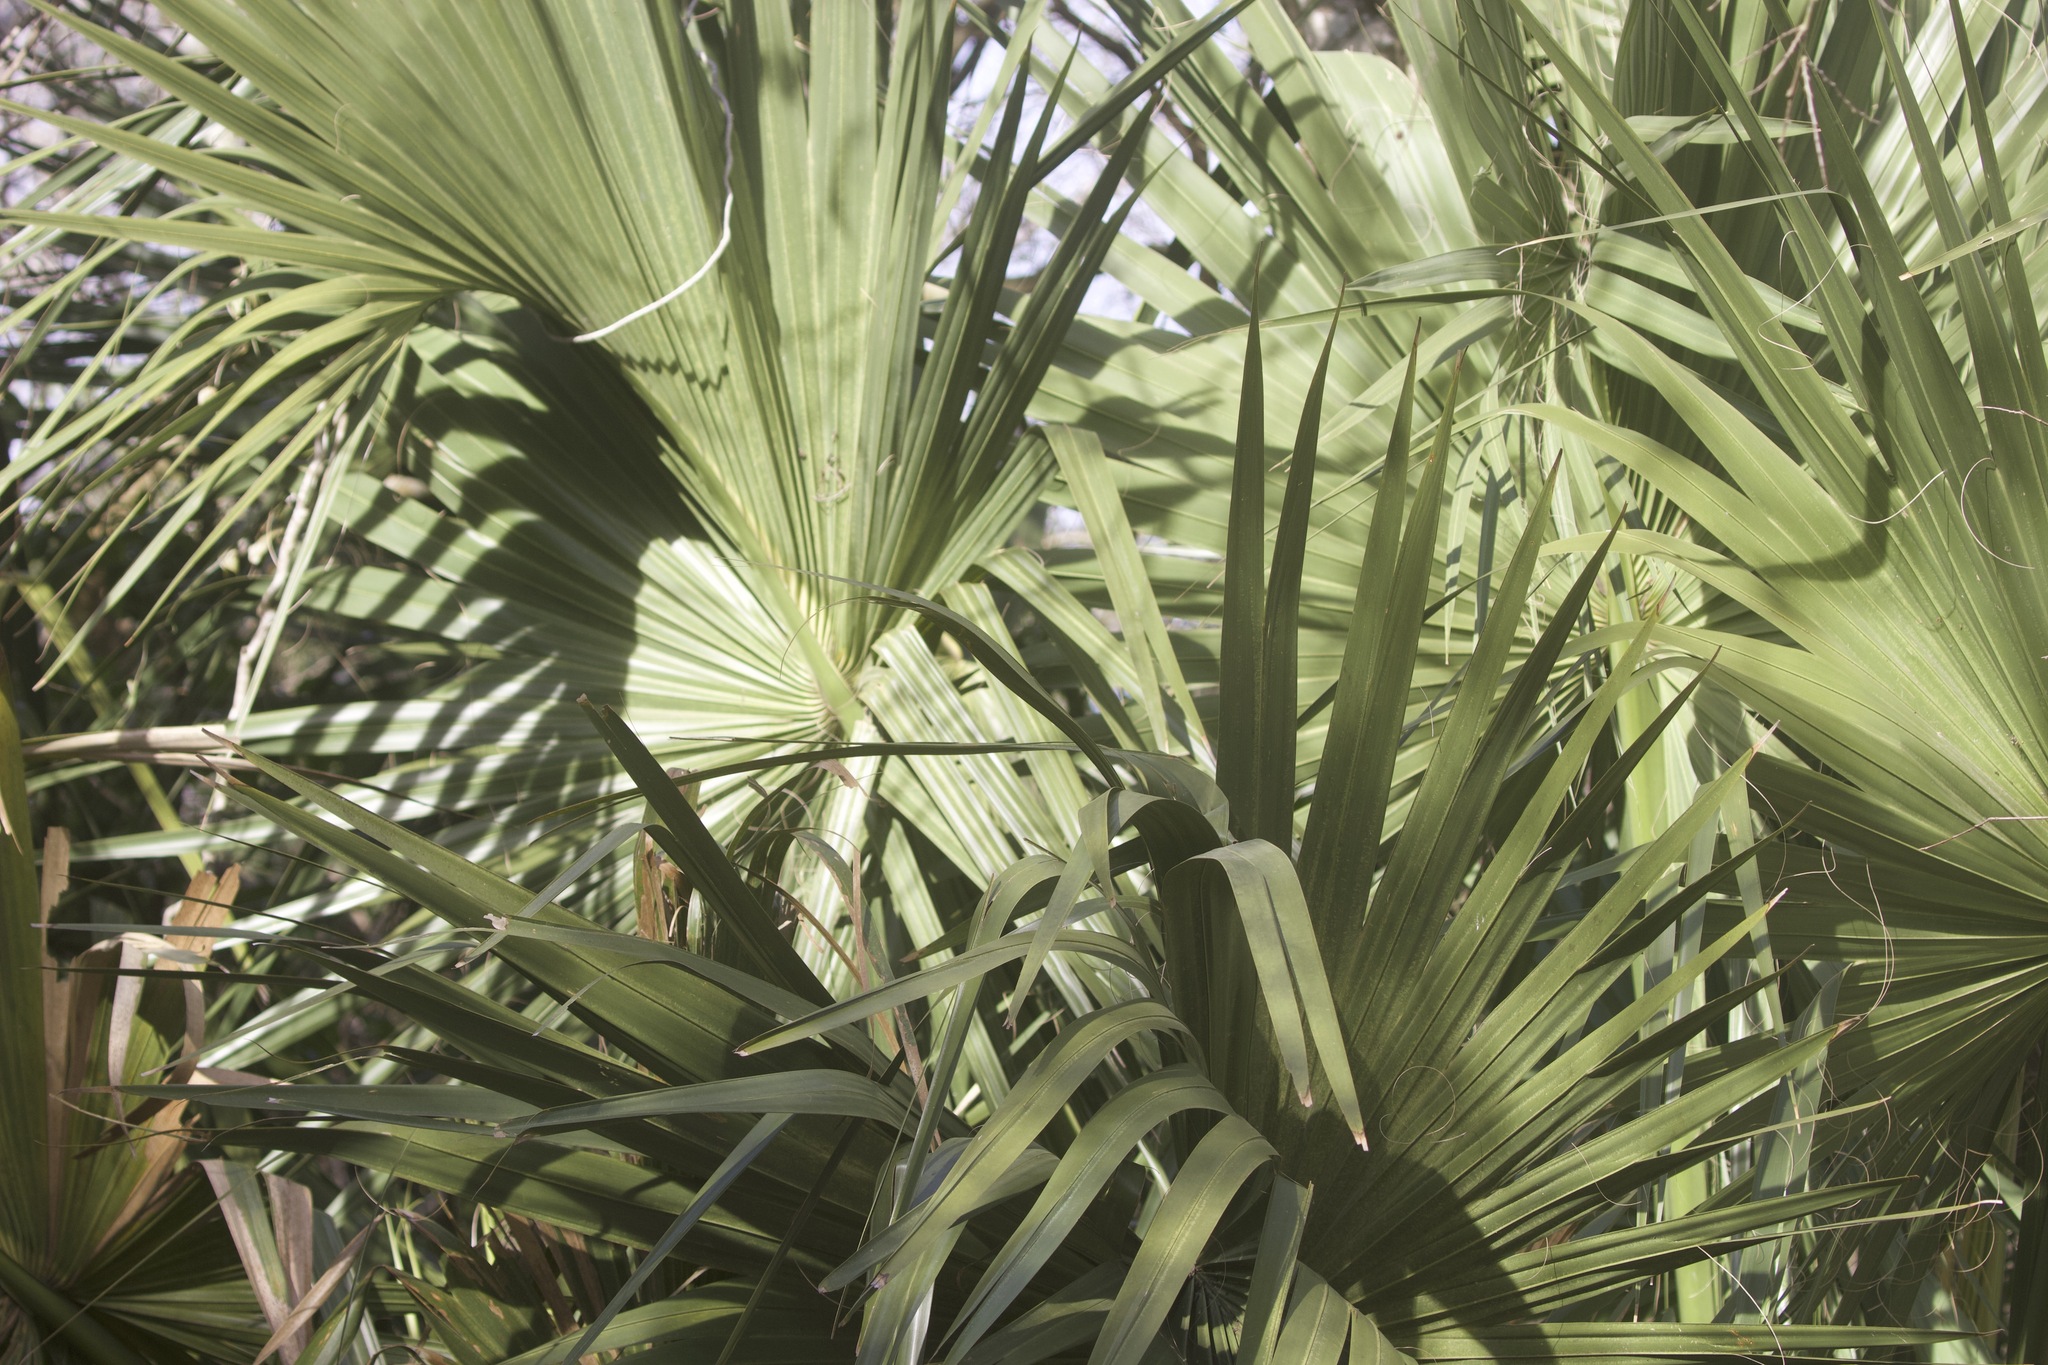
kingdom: Plantae
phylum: Tracheophyta
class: Liliopsida
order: Arecales
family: Arecaceae
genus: Sabal
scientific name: Sabal mexicana
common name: Texas palmetto
